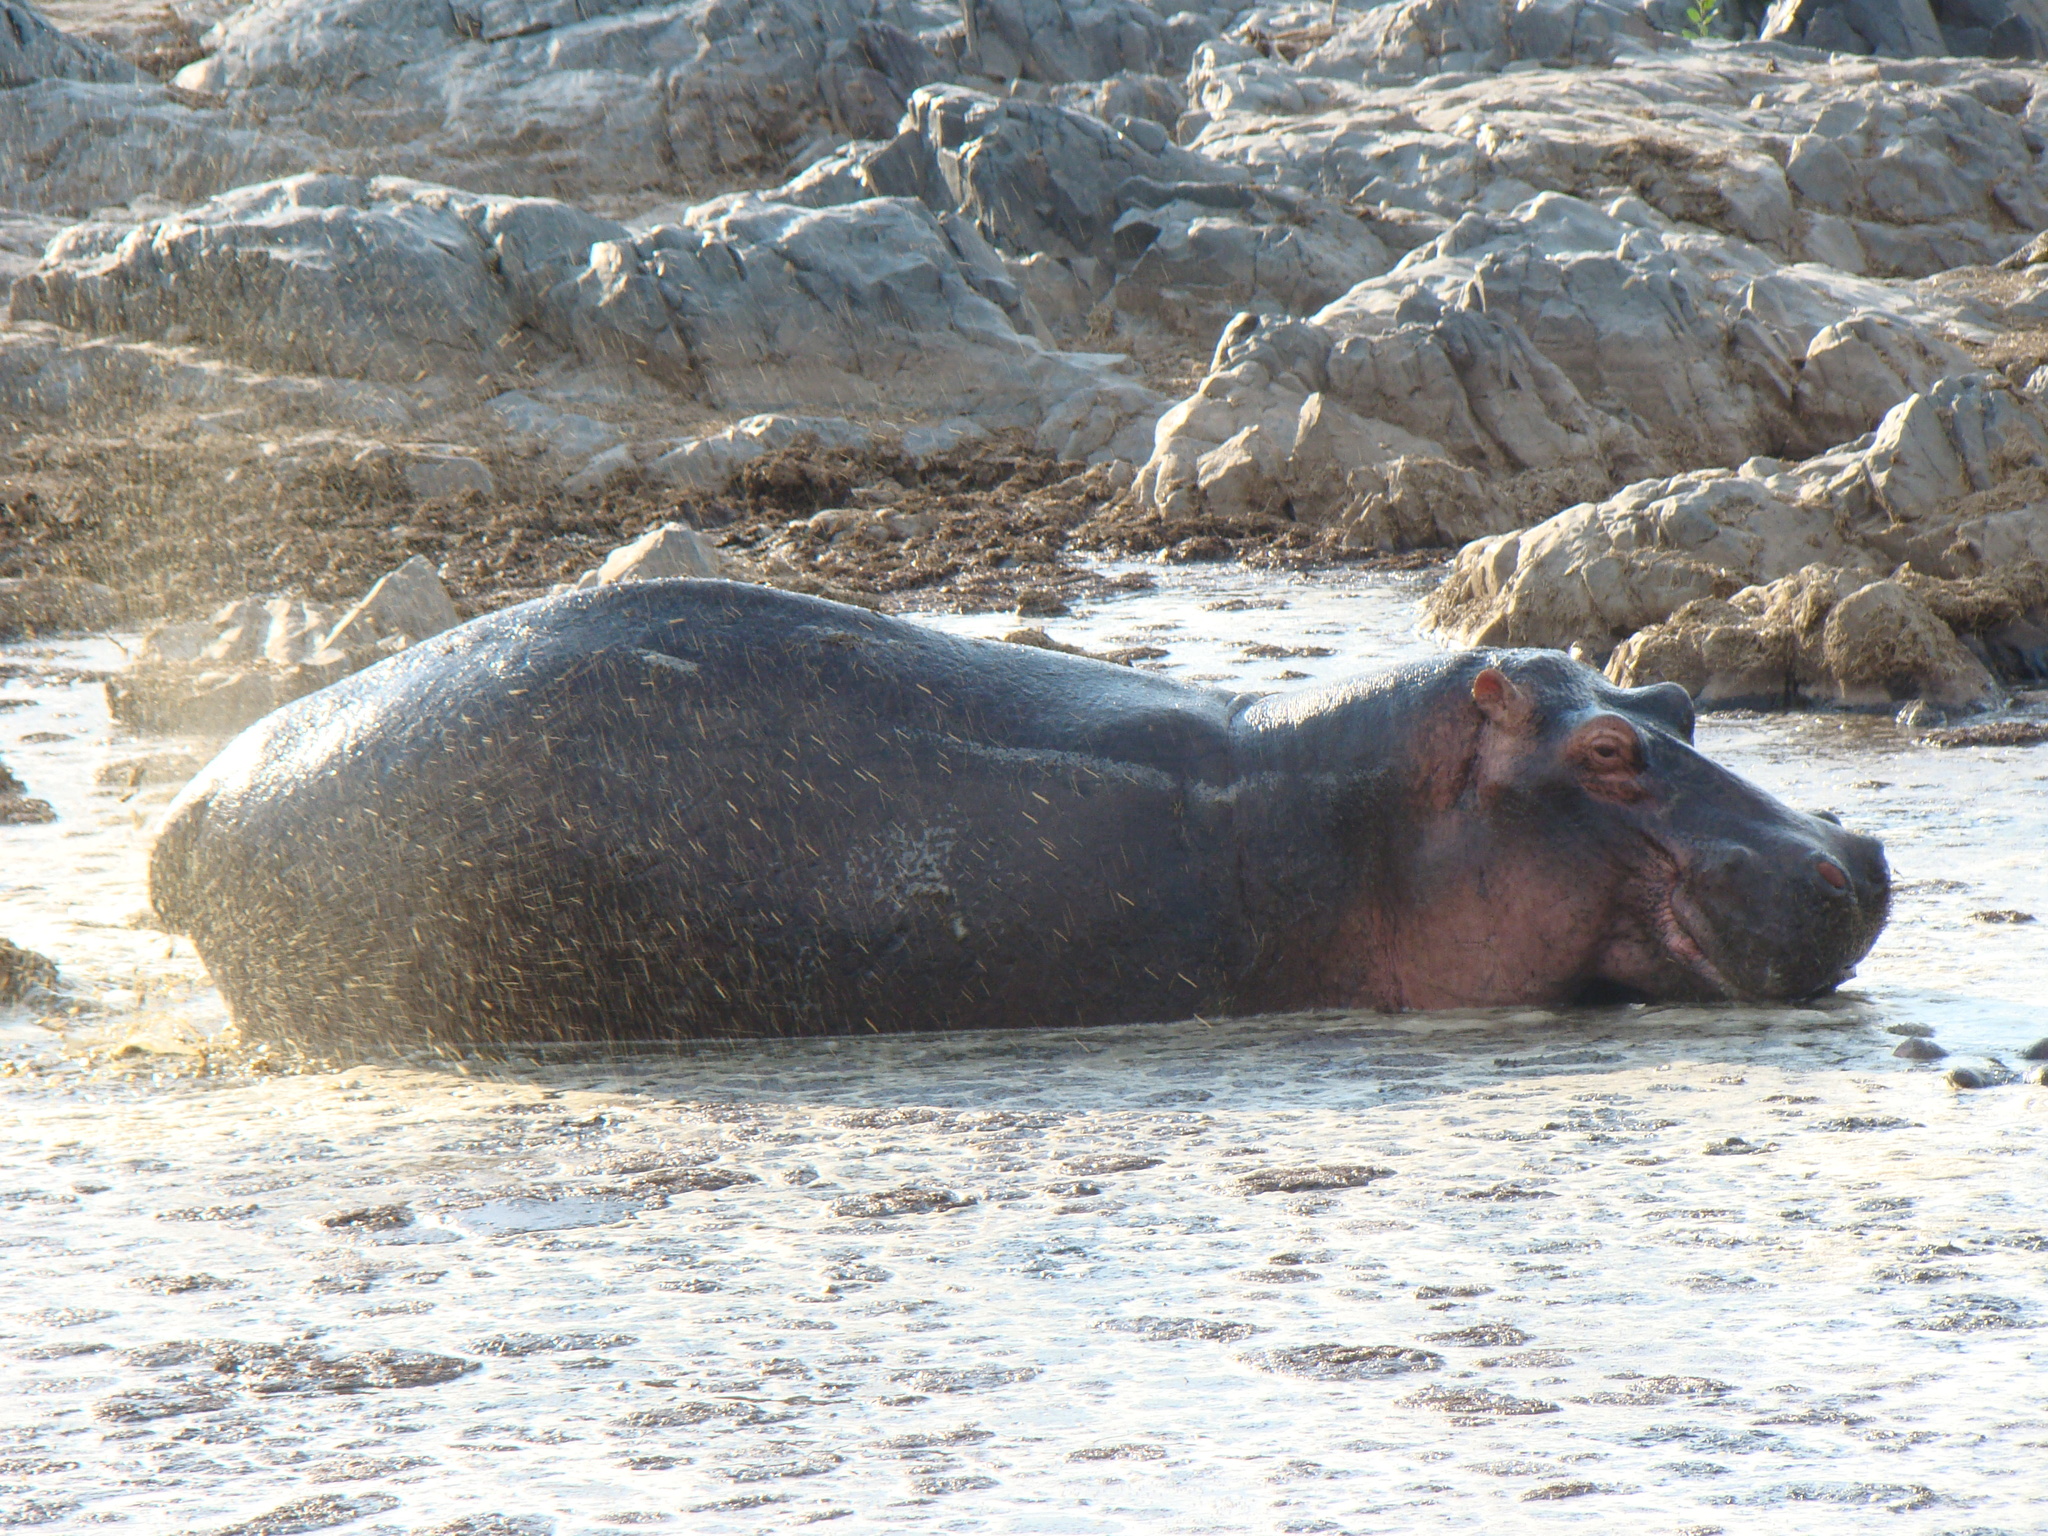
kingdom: Animalia
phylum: Chordata
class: Mammalia
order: Artiodactyla
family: Hippopotamidae
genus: Hippopotamus
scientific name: Hippopotamus amphibius
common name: Common hippopotamus
